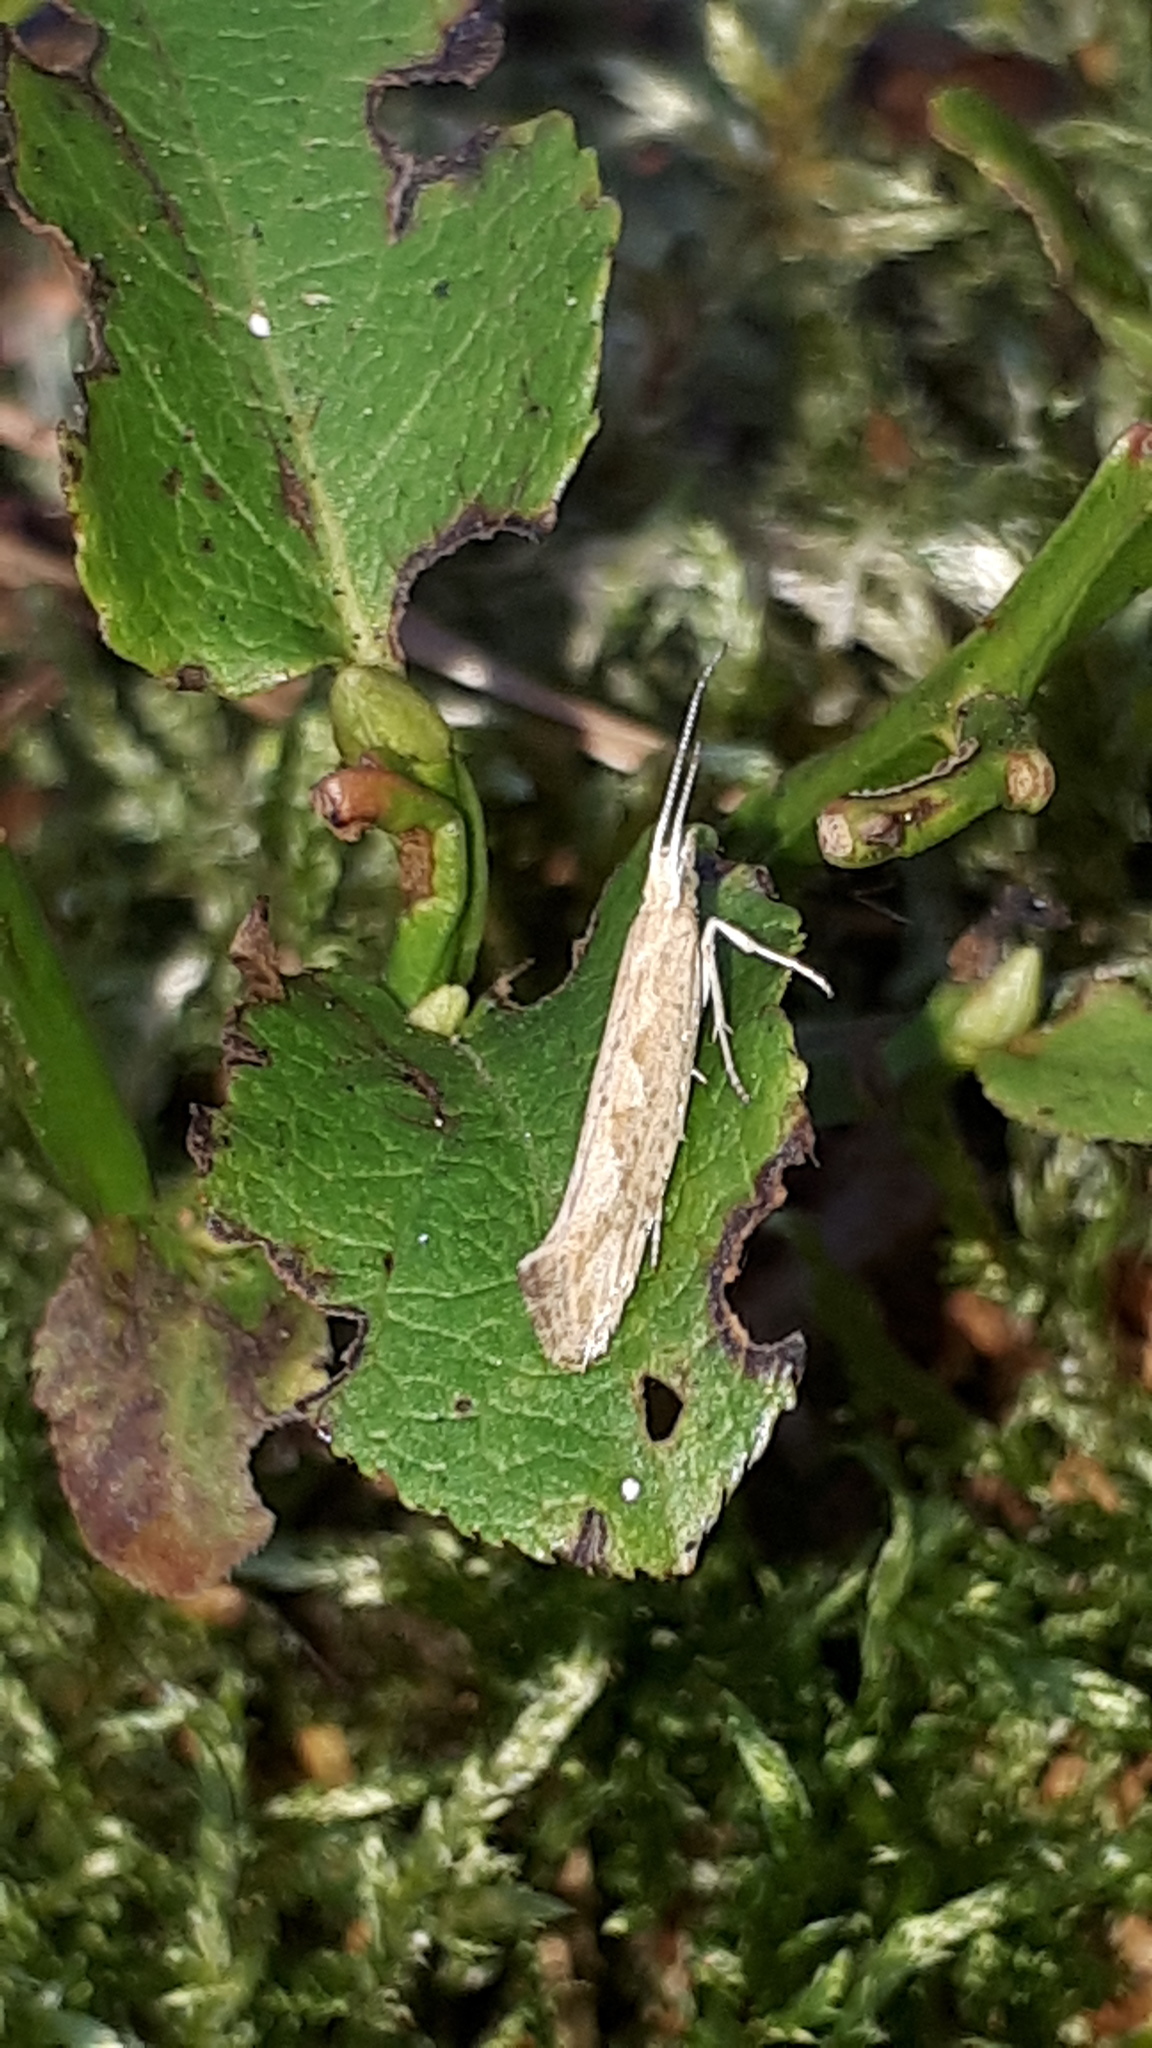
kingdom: Animalia
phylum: Arthropoda
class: Insecta
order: Lepidoptera
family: Plutellidae
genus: Plutella
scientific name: Plutella xylostella
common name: Diamond-back moth
